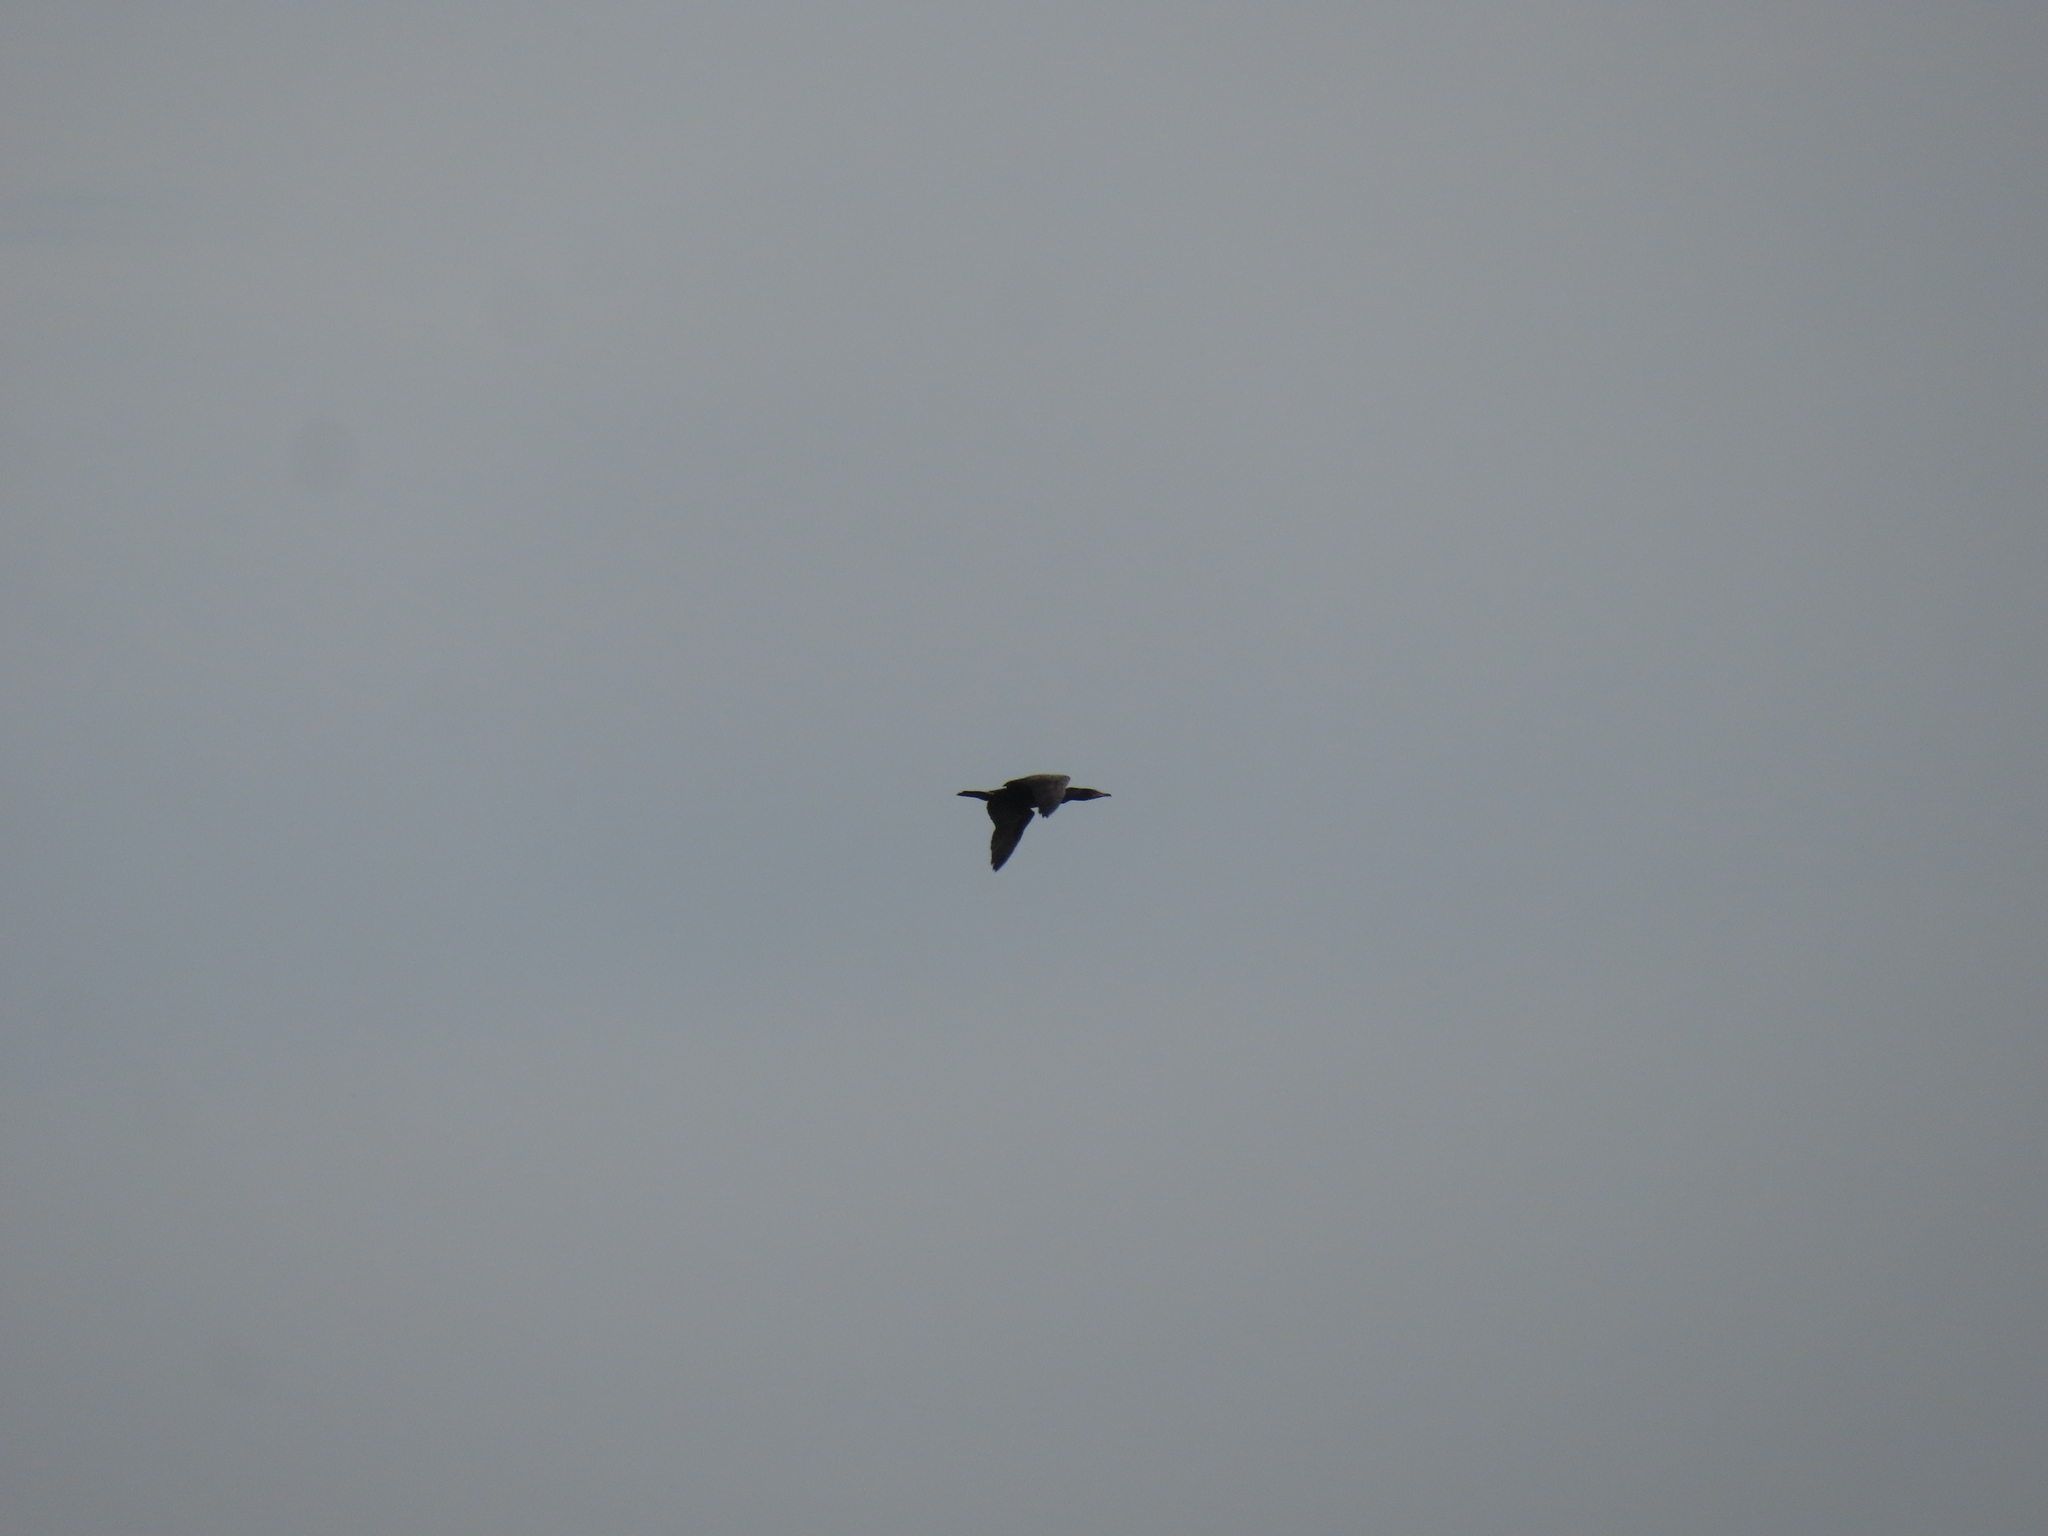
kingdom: Animalia
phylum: Chordata
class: Aves
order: Suliformes
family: Phalacrocoracidae
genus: Phalacrocorax
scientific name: Phalacrocorax auritus
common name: Double-crested cormorant
